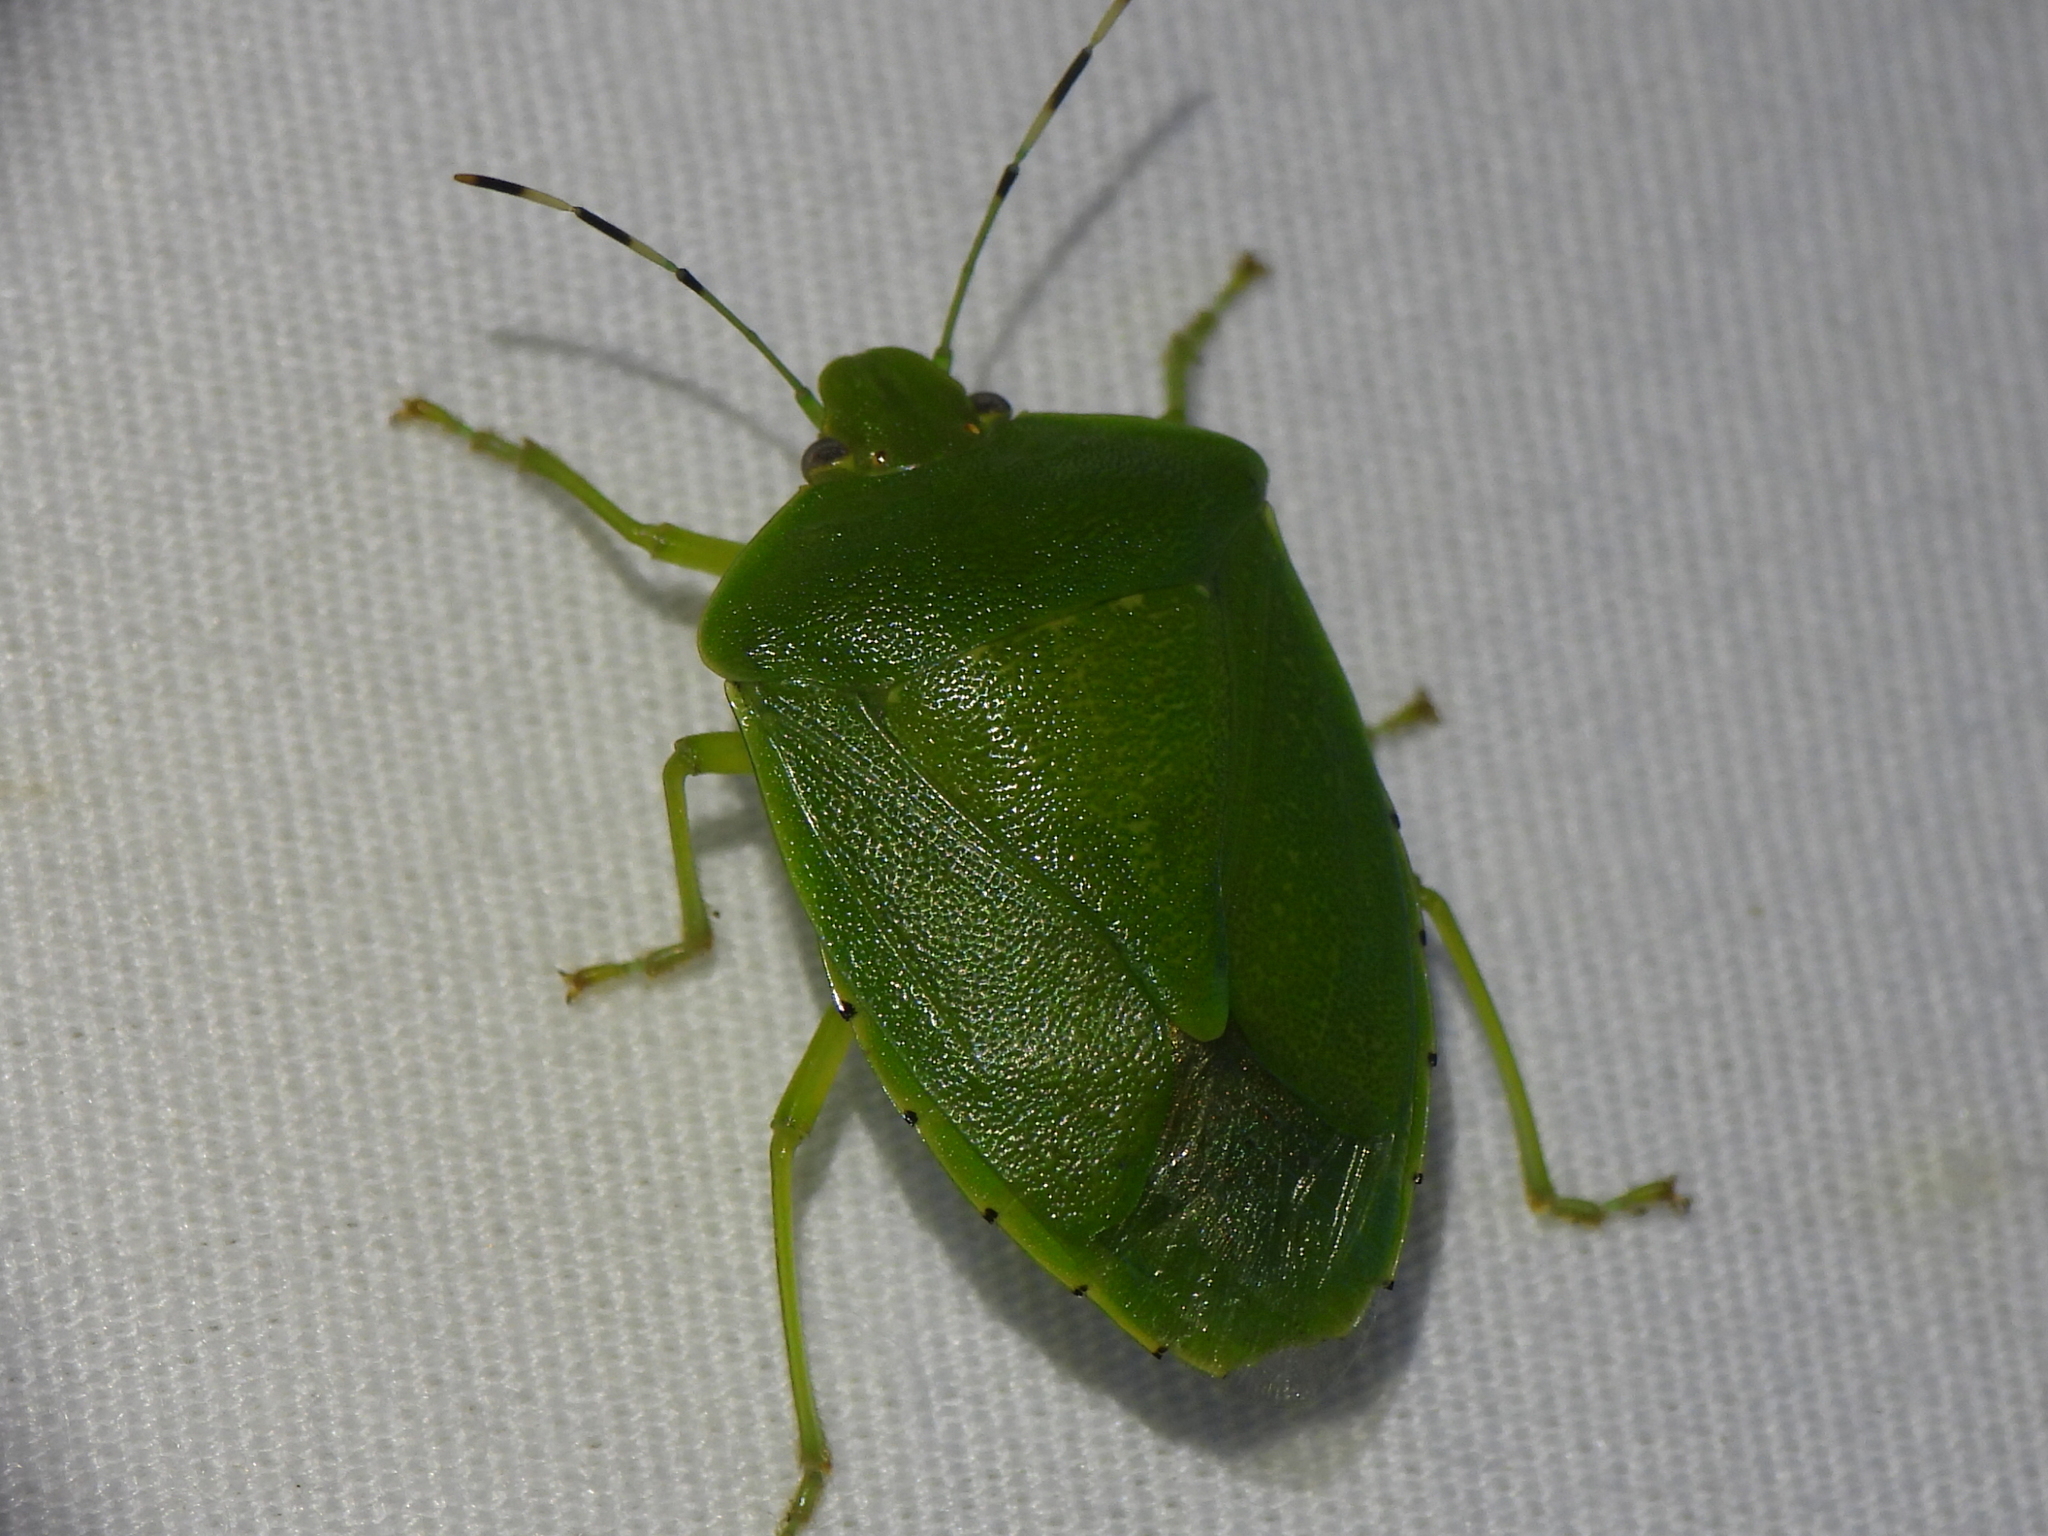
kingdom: Animalia
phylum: Arthropoda
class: Insecta
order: Hemiptera
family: Pentatomidae
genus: Chinavia
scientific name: Chinavia hilaris
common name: Green stink bug
